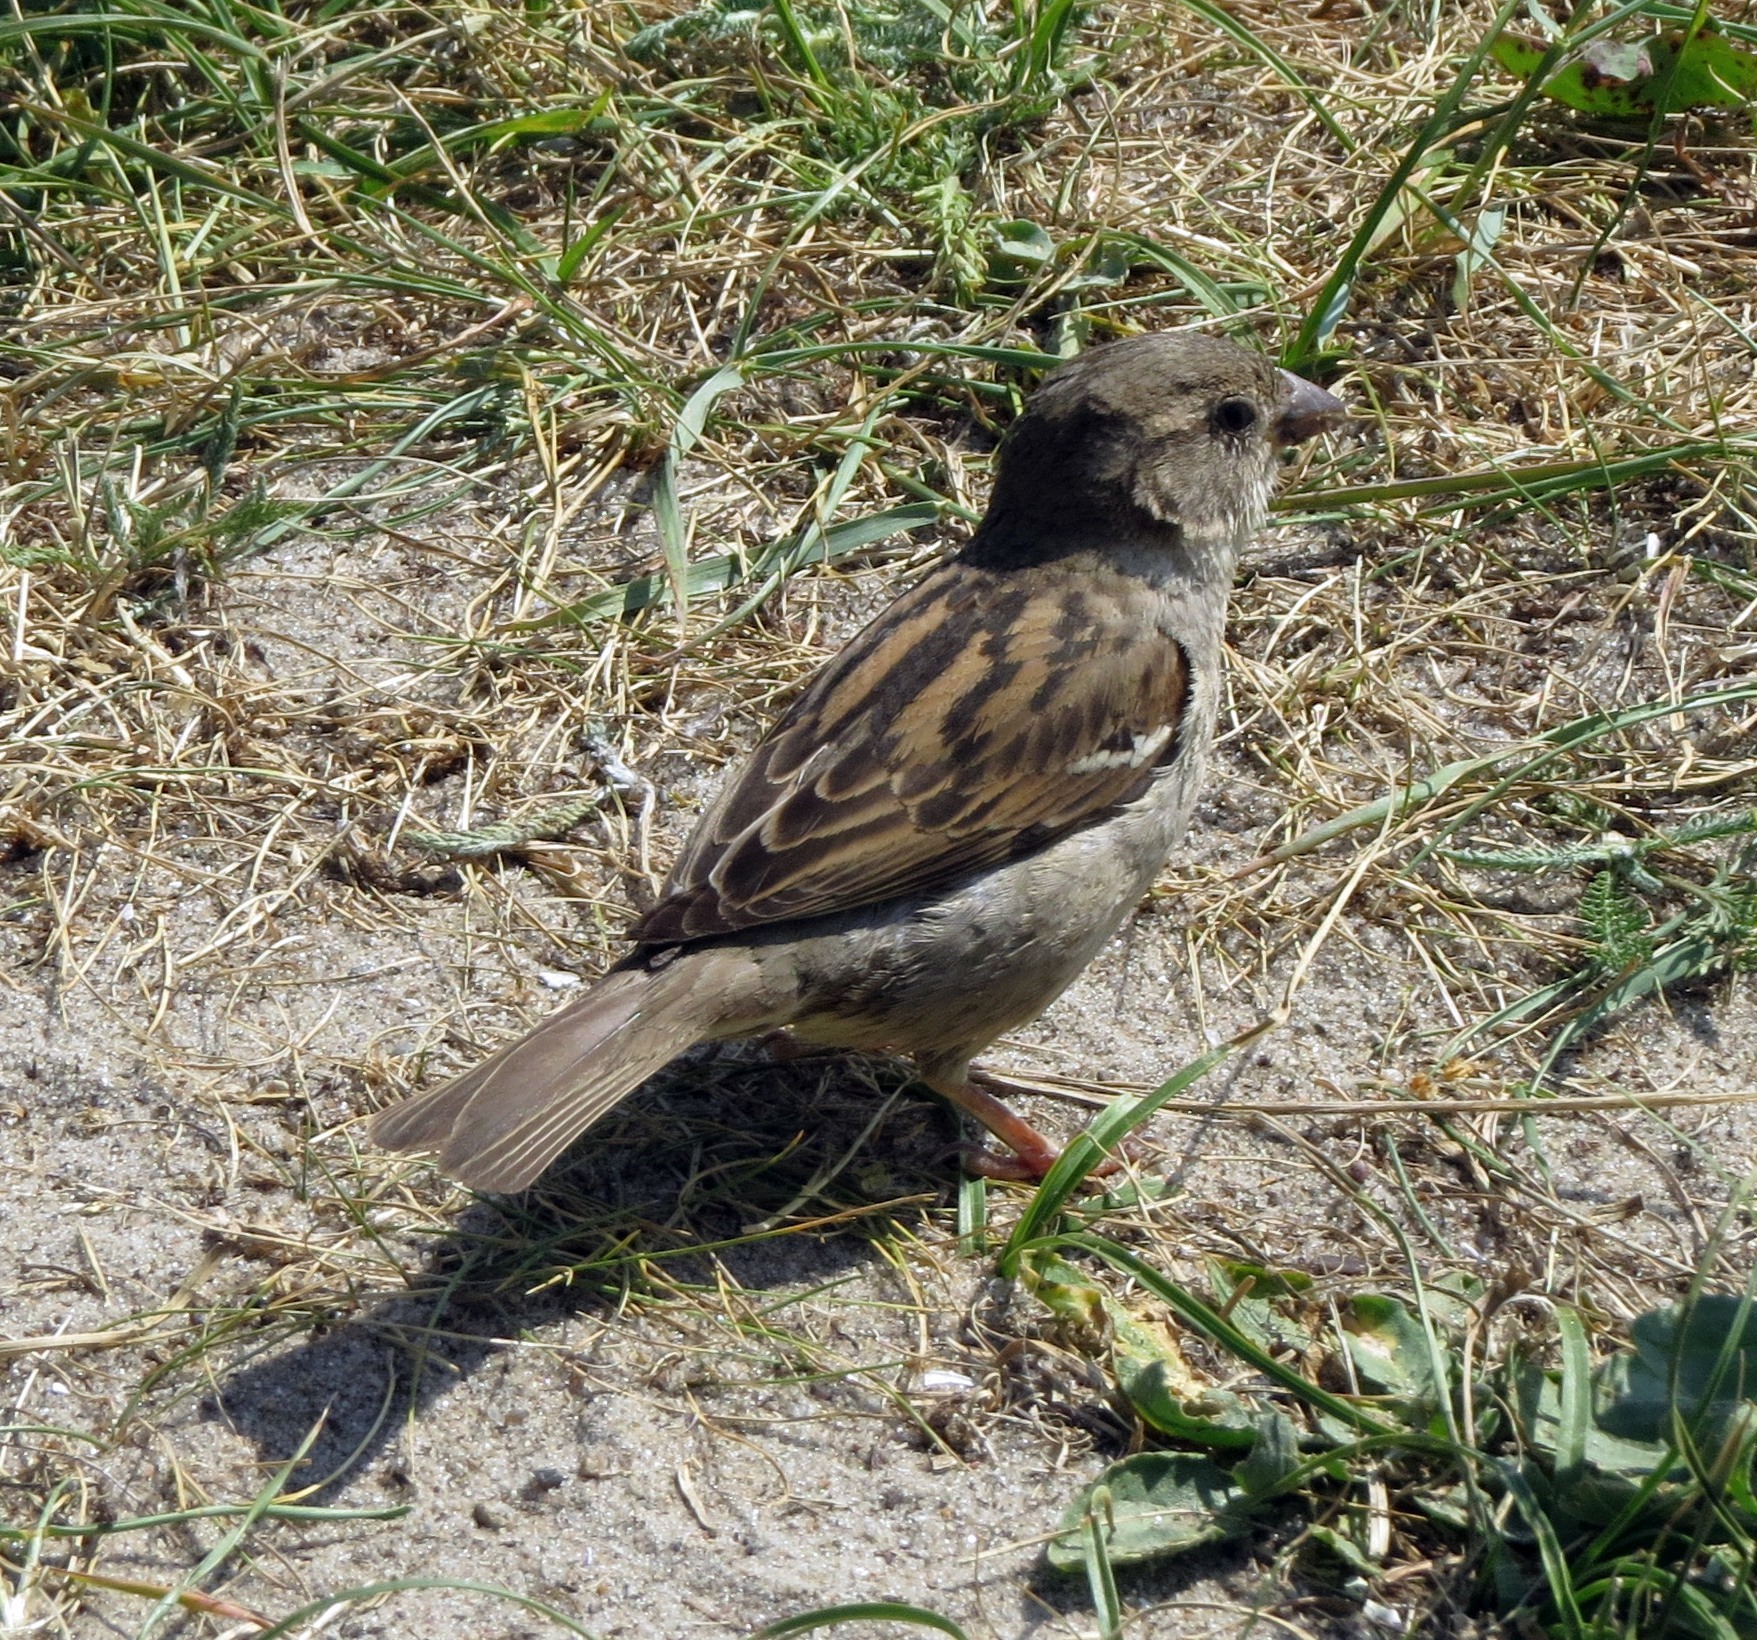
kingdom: Animalia
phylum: Chordata
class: Aves
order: Passeriformes
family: Passeridae
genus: Passer
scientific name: Passer domesticus
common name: House sparrow
